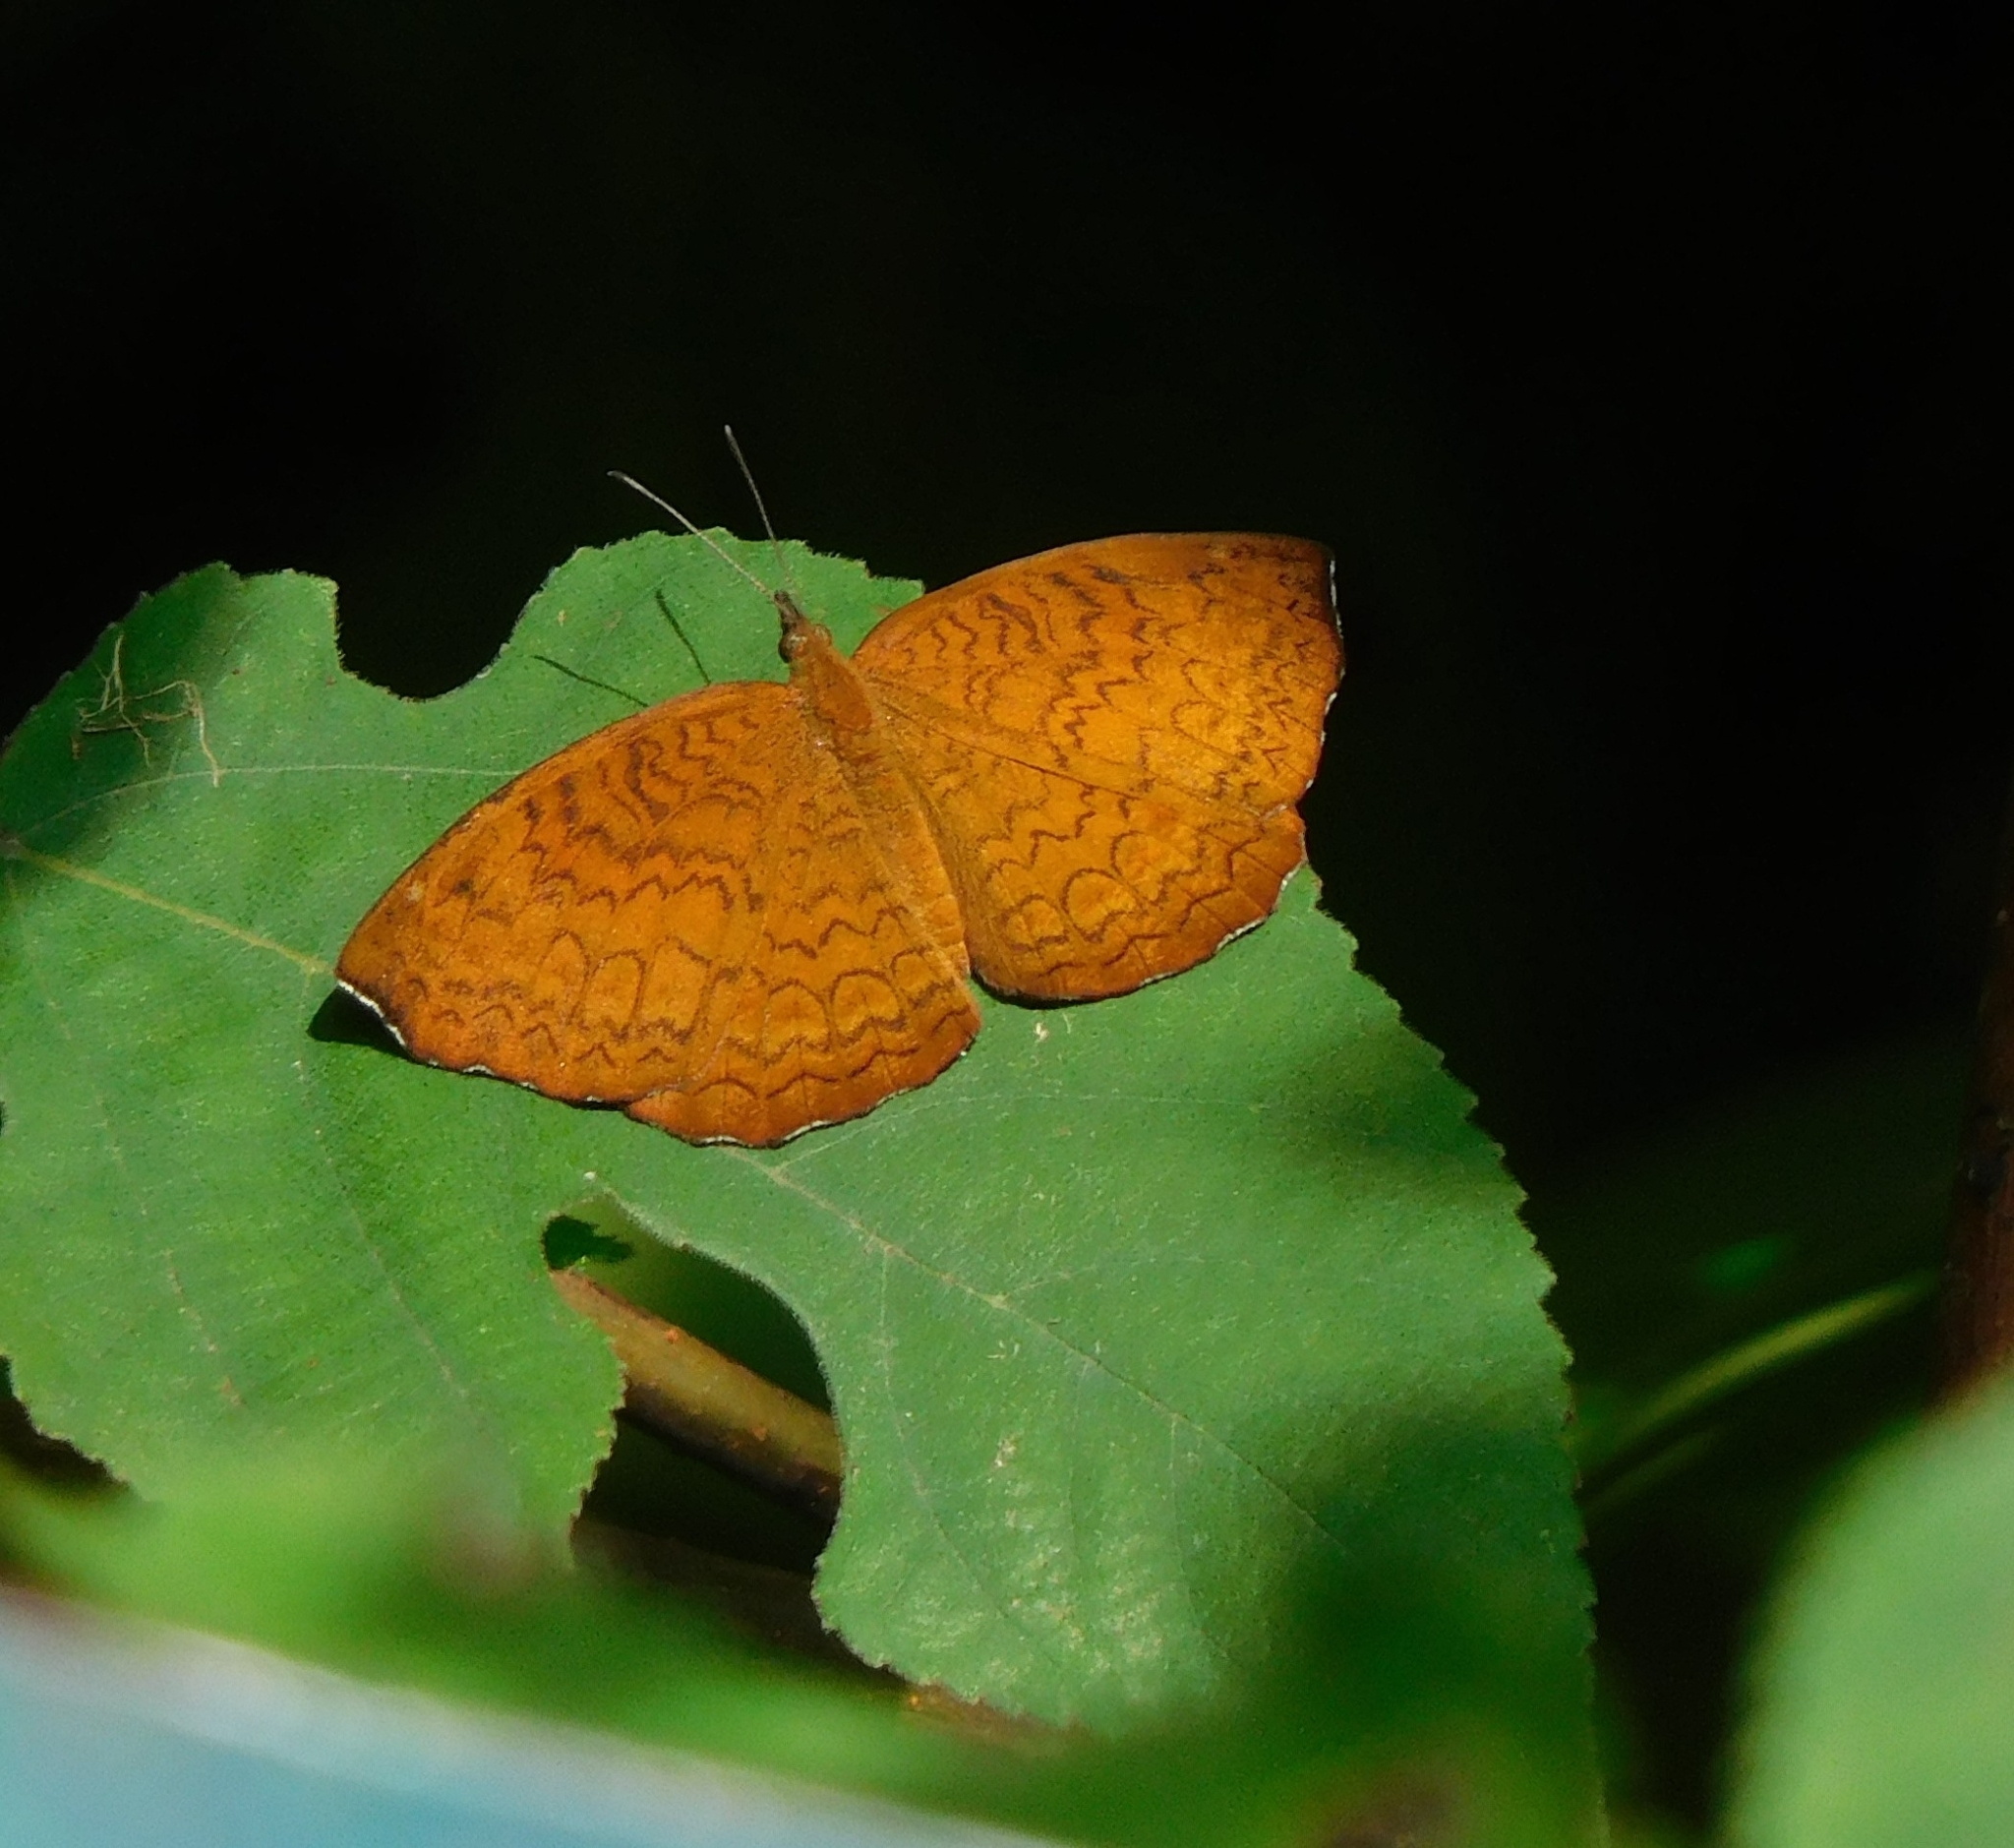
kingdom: Animalia
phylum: Arthropoda
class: Insecta
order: Lepidoptera
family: Nymphalidae
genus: Ariadne
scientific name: Ariadne merione
